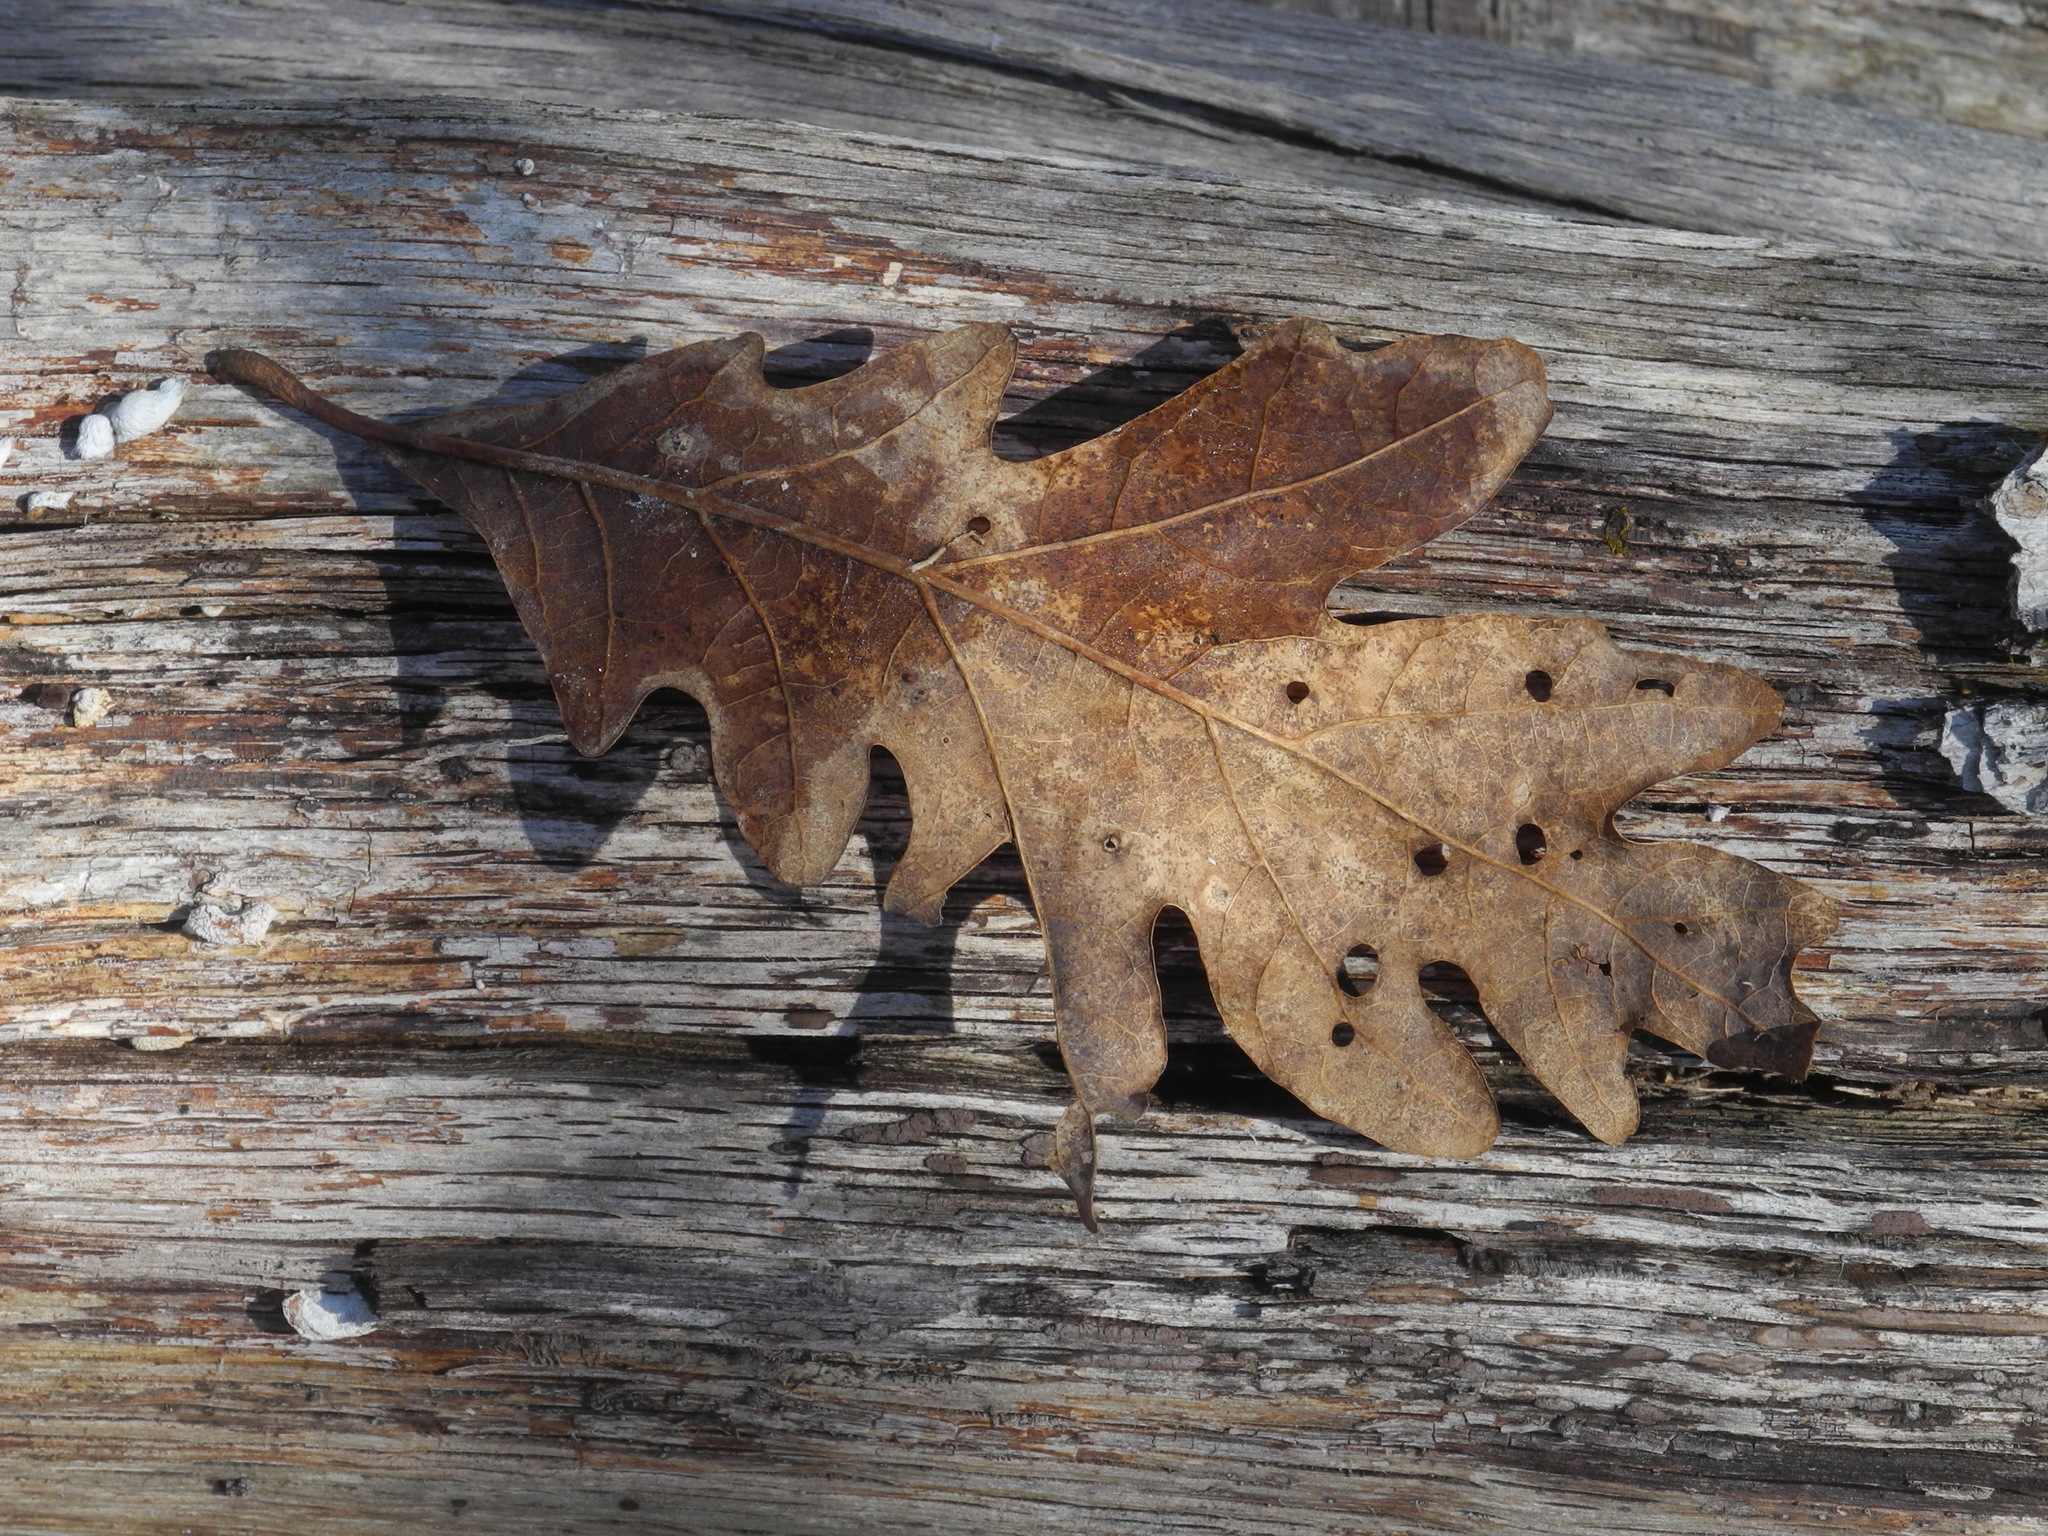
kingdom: Plantae
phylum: Tracheophyta
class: Magnoliopsida
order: Fagales
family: Fagaceae
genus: Quercus
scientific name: Quercus alba
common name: White oak
